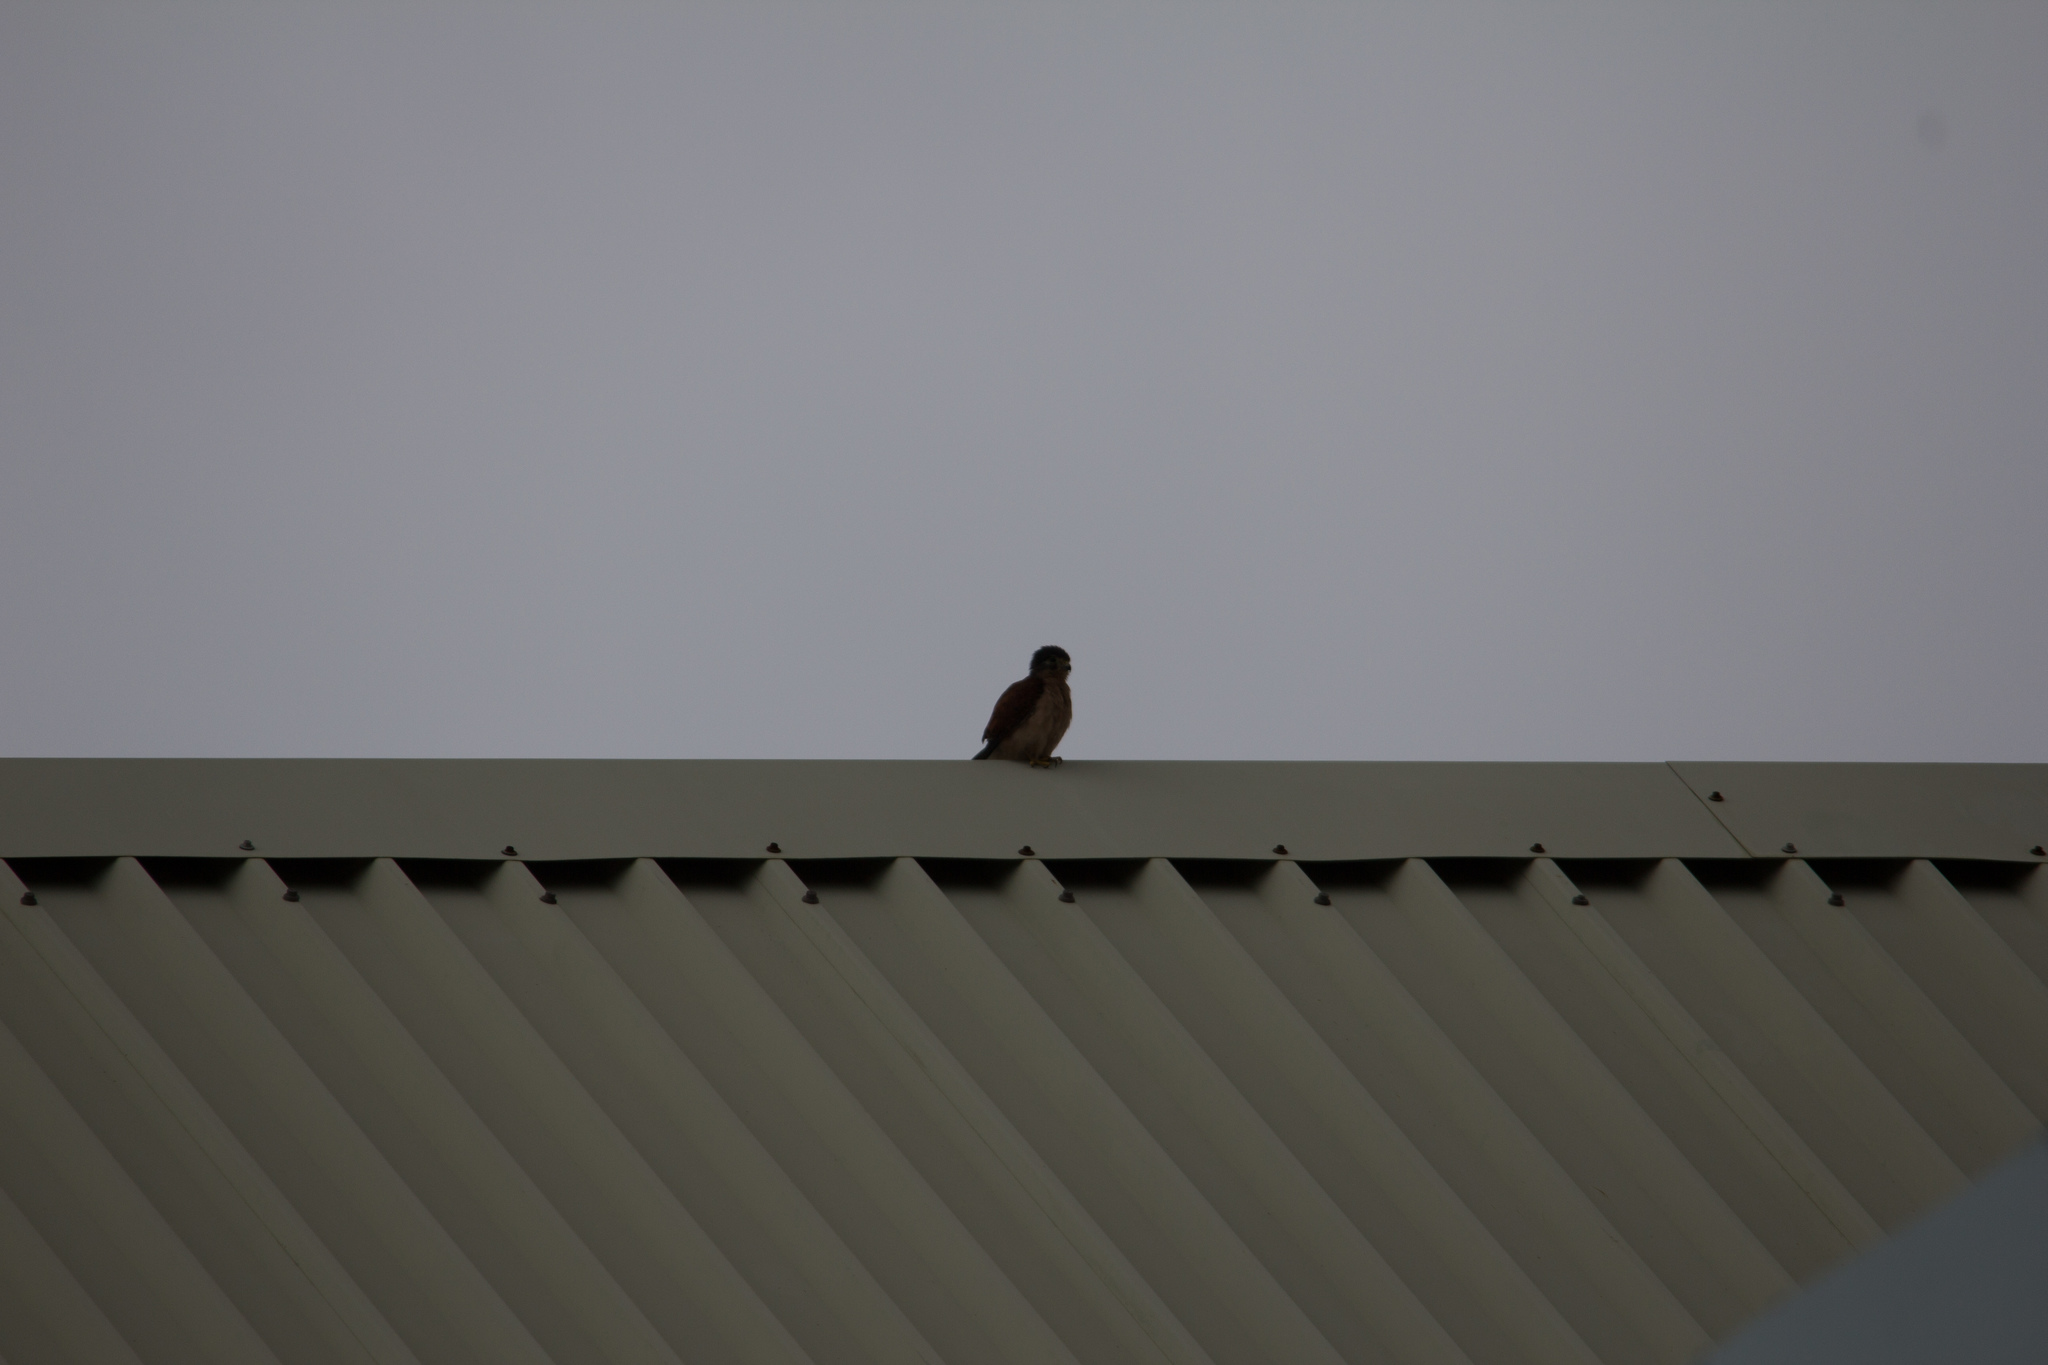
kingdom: Animalia
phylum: Chordata
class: Aves
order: Falconiformes
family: Falconidae
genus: Falco
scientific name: Falco araeus
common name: Seychelles kestrel
